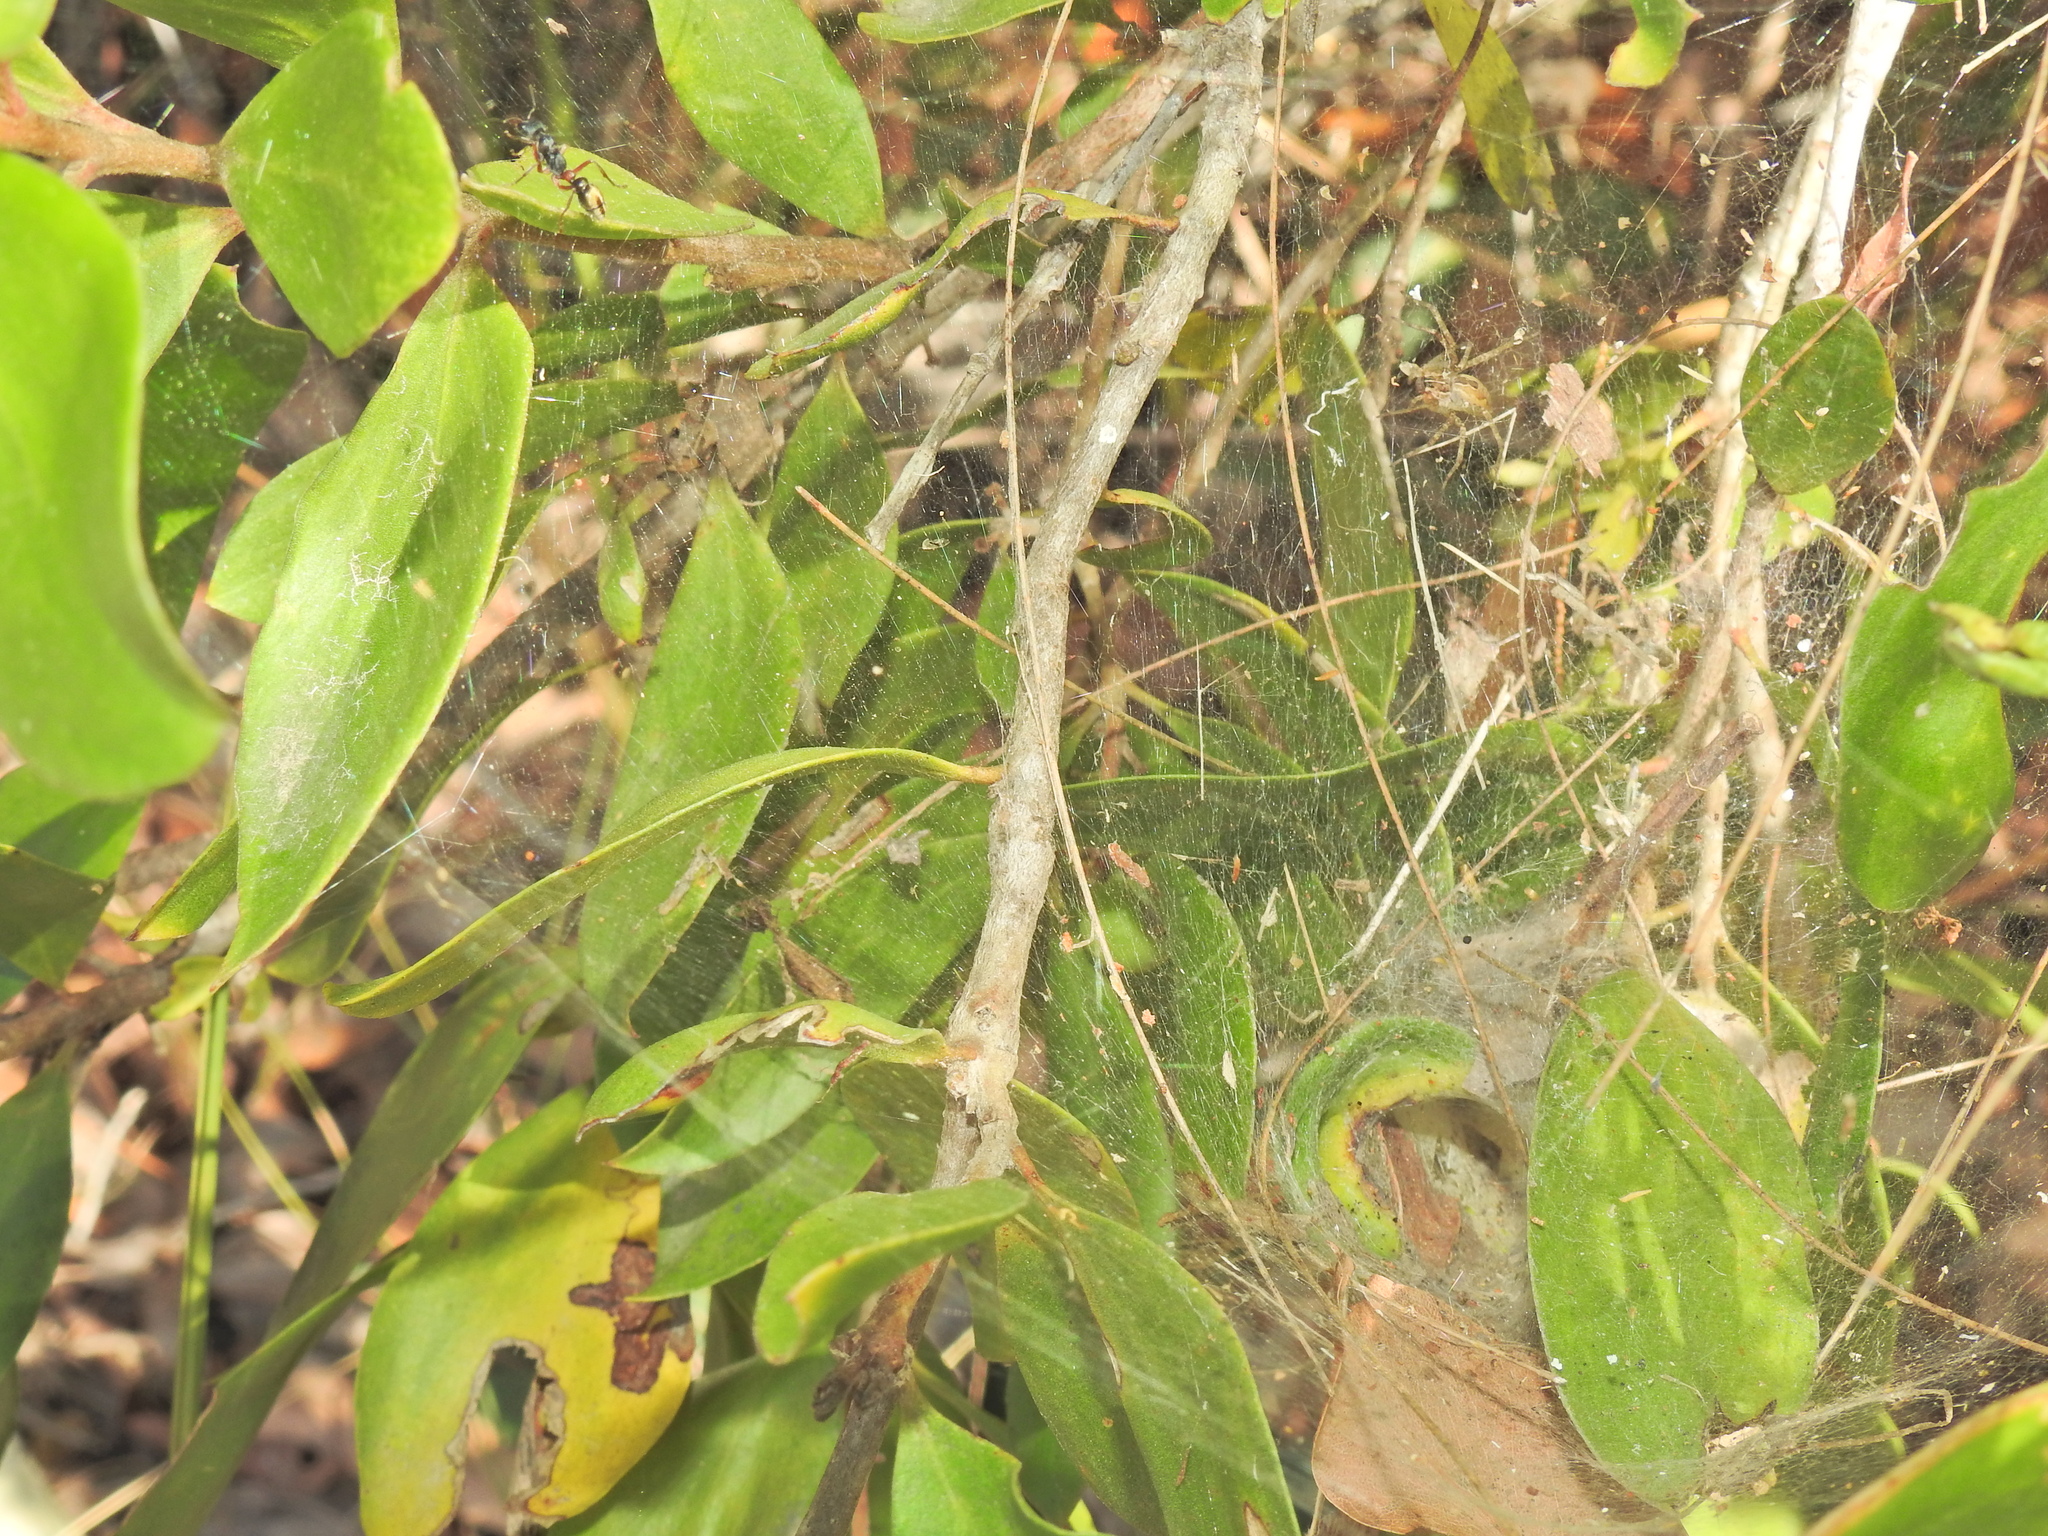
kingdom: Animalia
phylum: Arthropoda
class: Arachnida
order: Araneae
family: Pisauridae
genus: Dendrolycosa
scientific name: Dendrolycosa icadia
